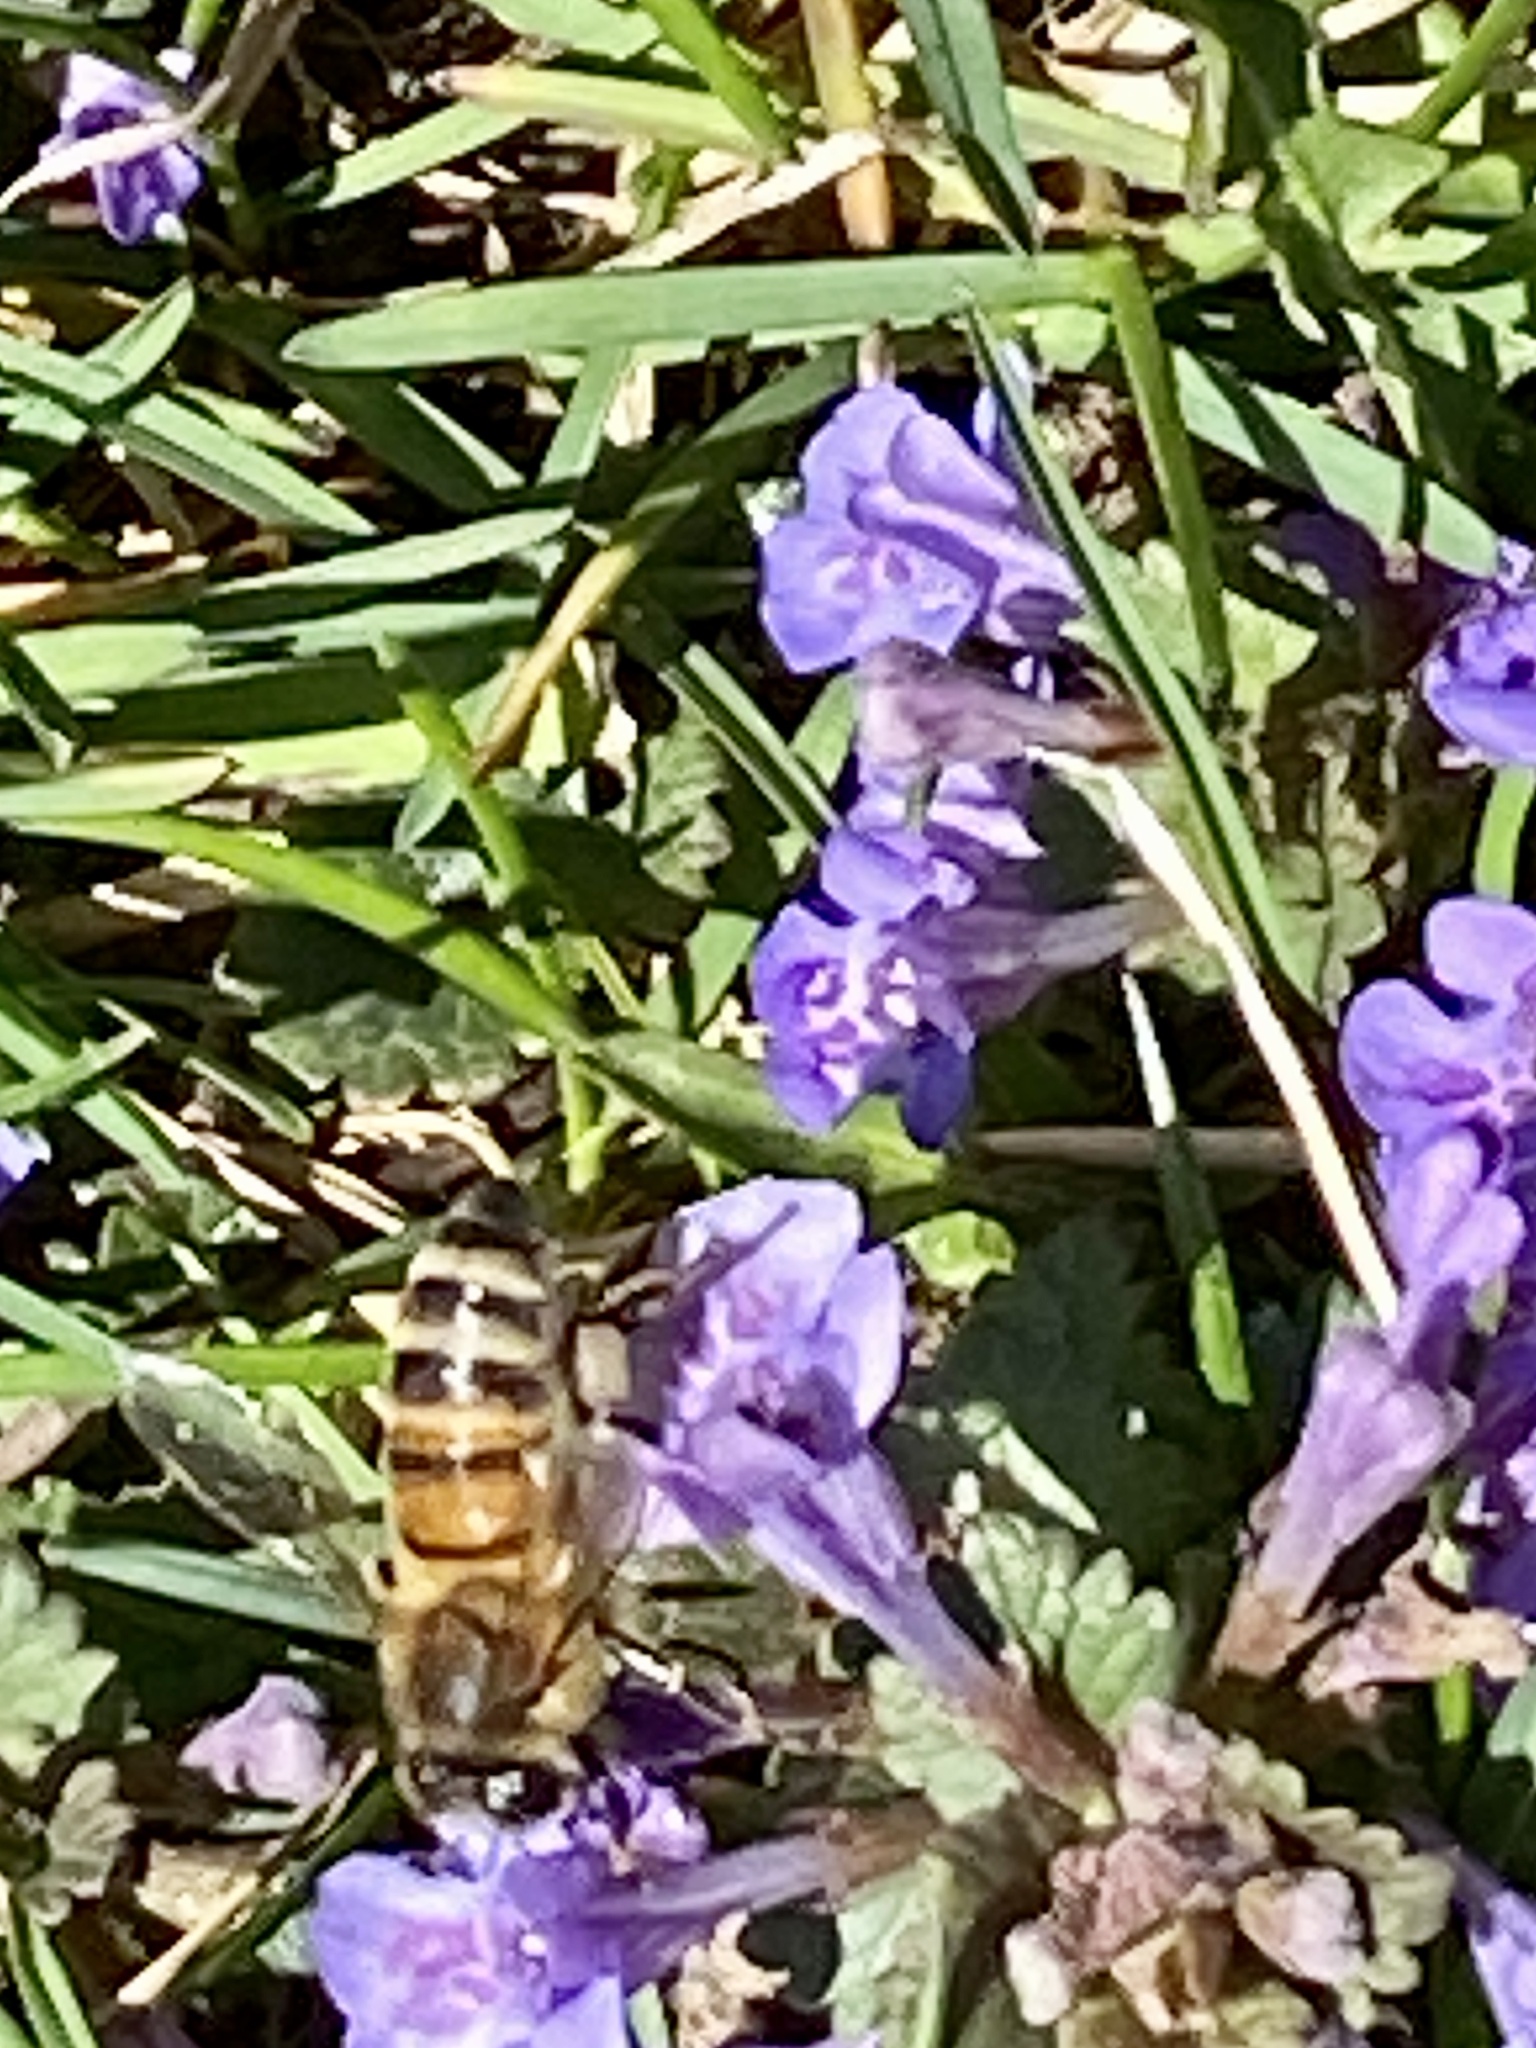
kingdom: Animalia
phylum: Arthropoda
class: Insecta
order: Hymenoptera
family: Apidae
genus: Apis
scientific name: Apis mellifera
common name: Honey bee
